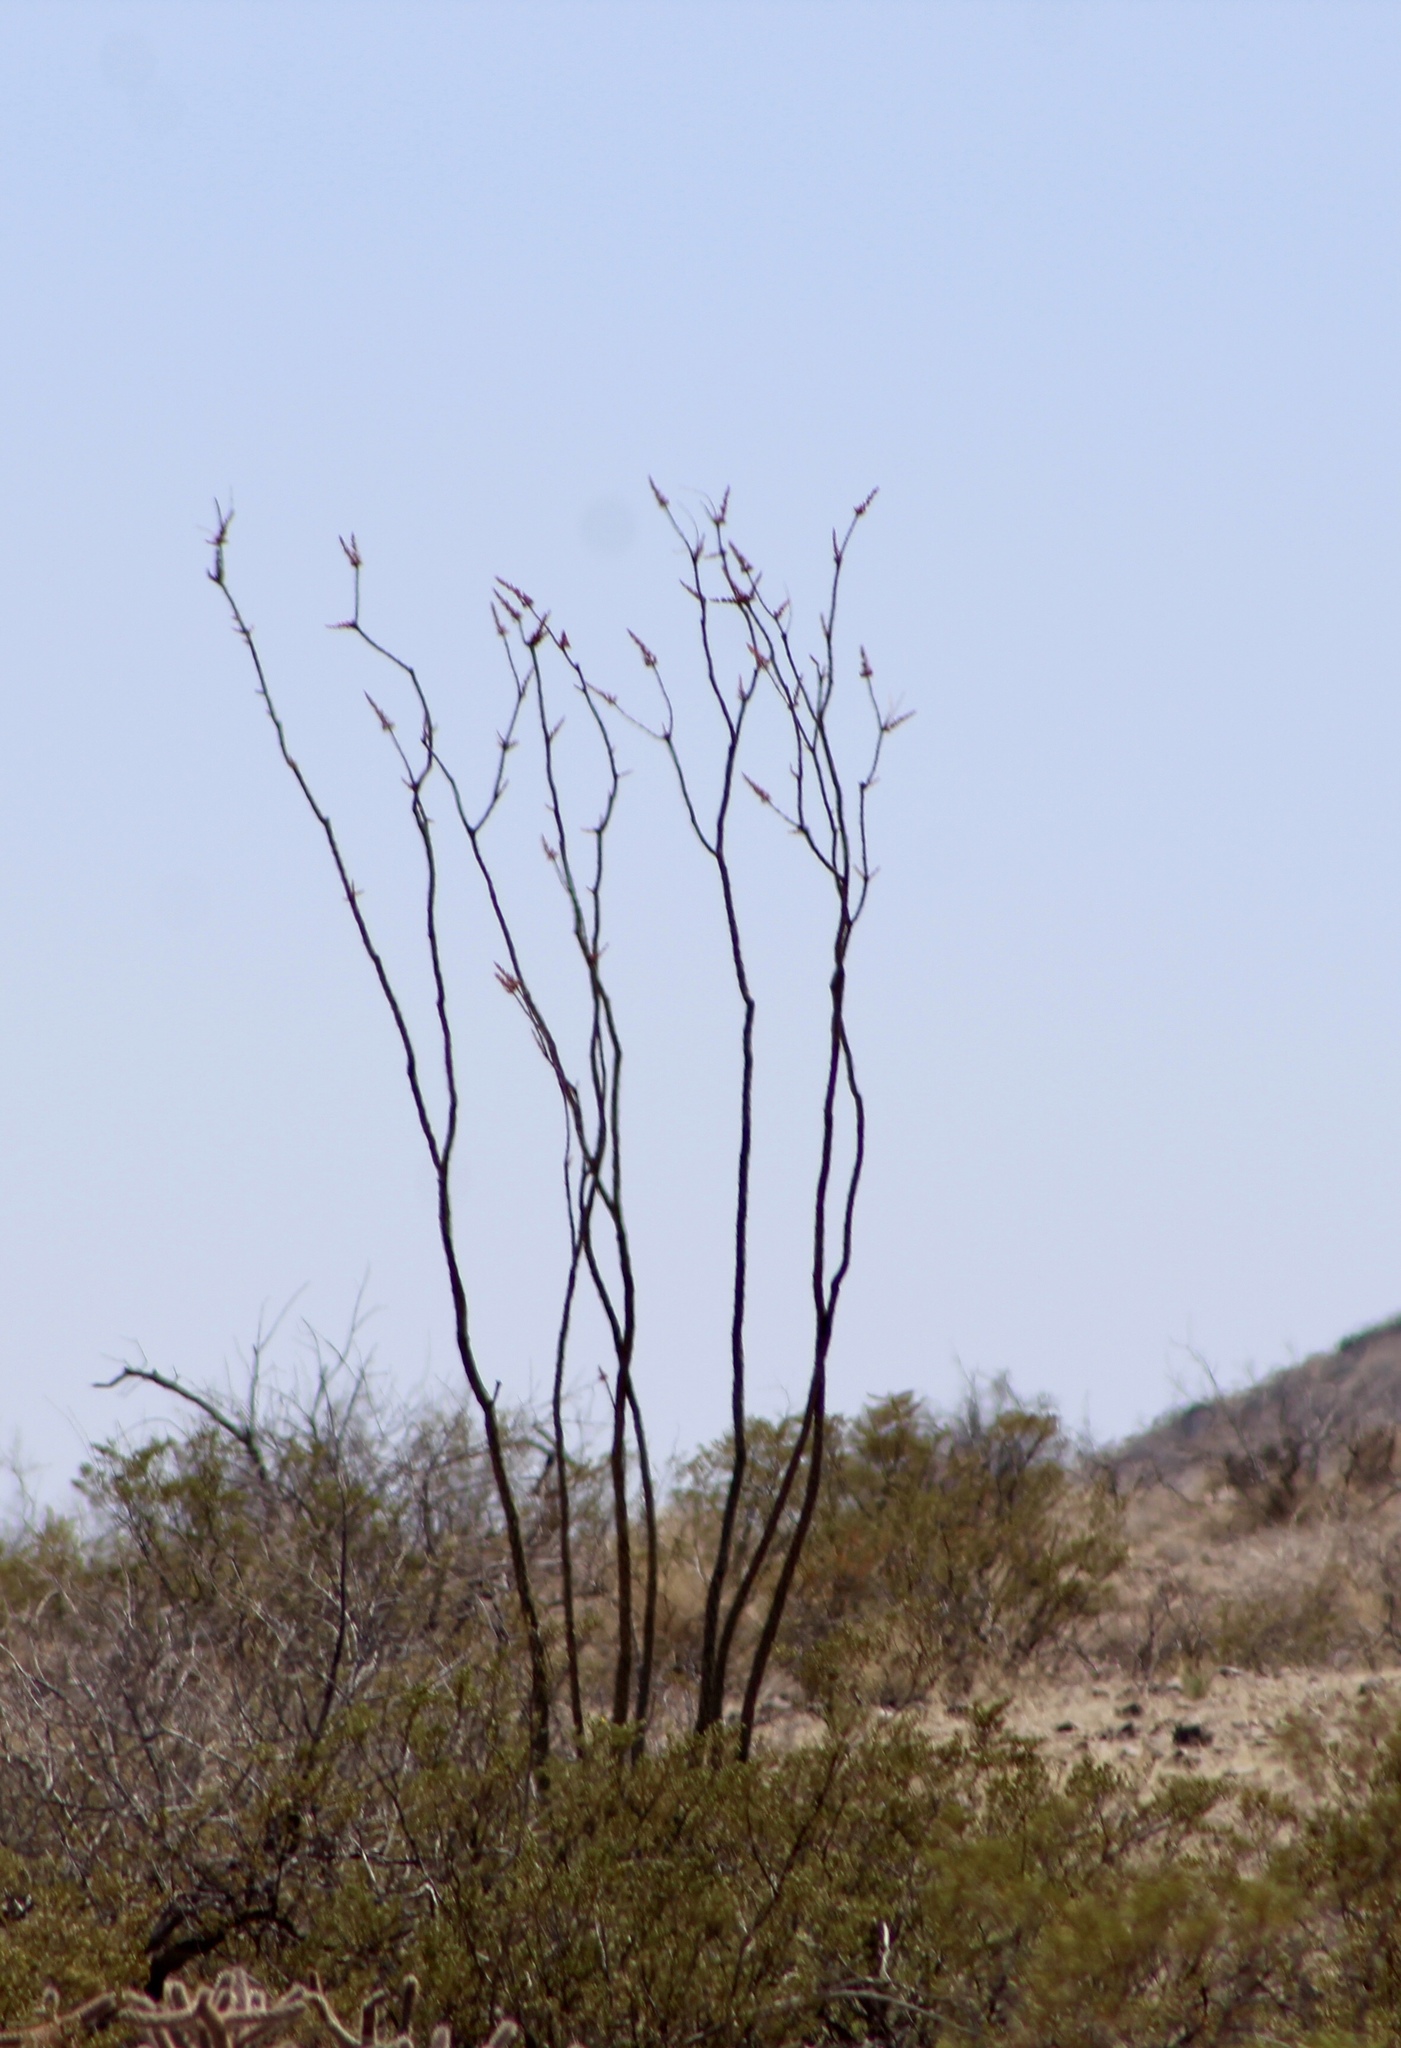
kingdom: Plantae
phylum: Tracheophyta
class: Magnoliopsida
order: Ericales
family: Fouquieriaceae
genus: Fouquieria
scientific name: Fouquieria splendens
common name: Vine-cactus
